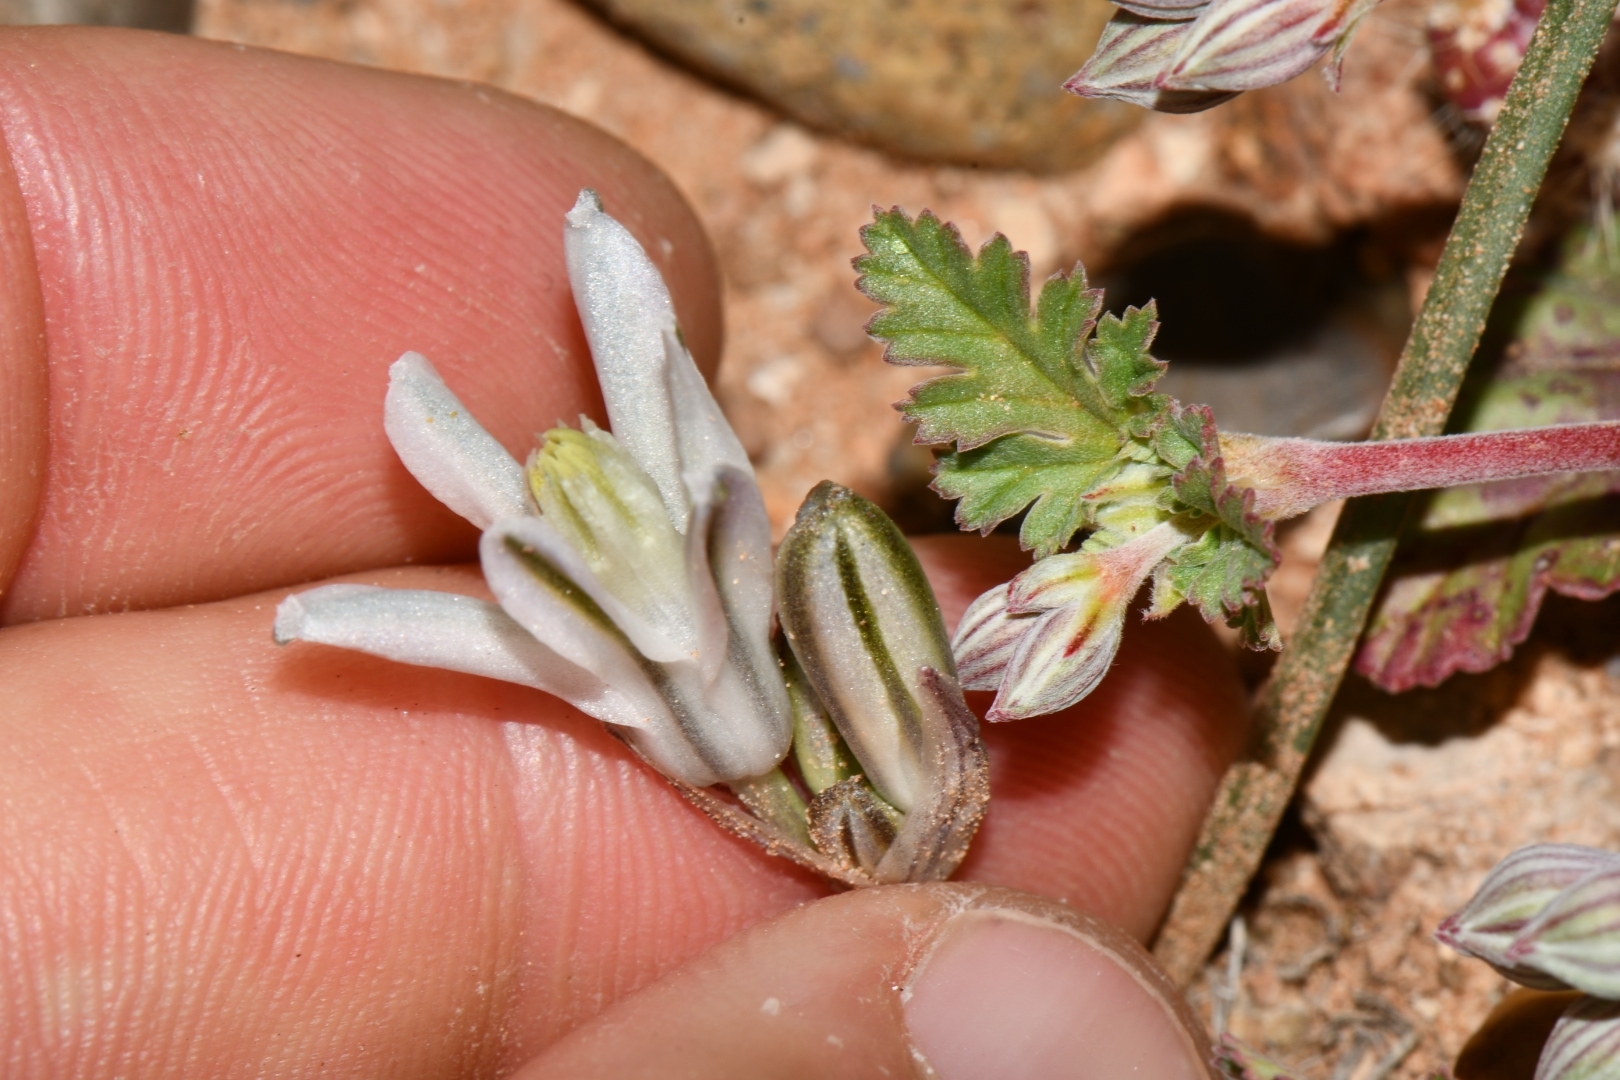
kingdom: Plantae
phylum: Tracheophyta
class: Liliopsida
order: Asparagales
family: Asparagaceae
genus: Androstephium
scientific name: Androstephium breviflorum
